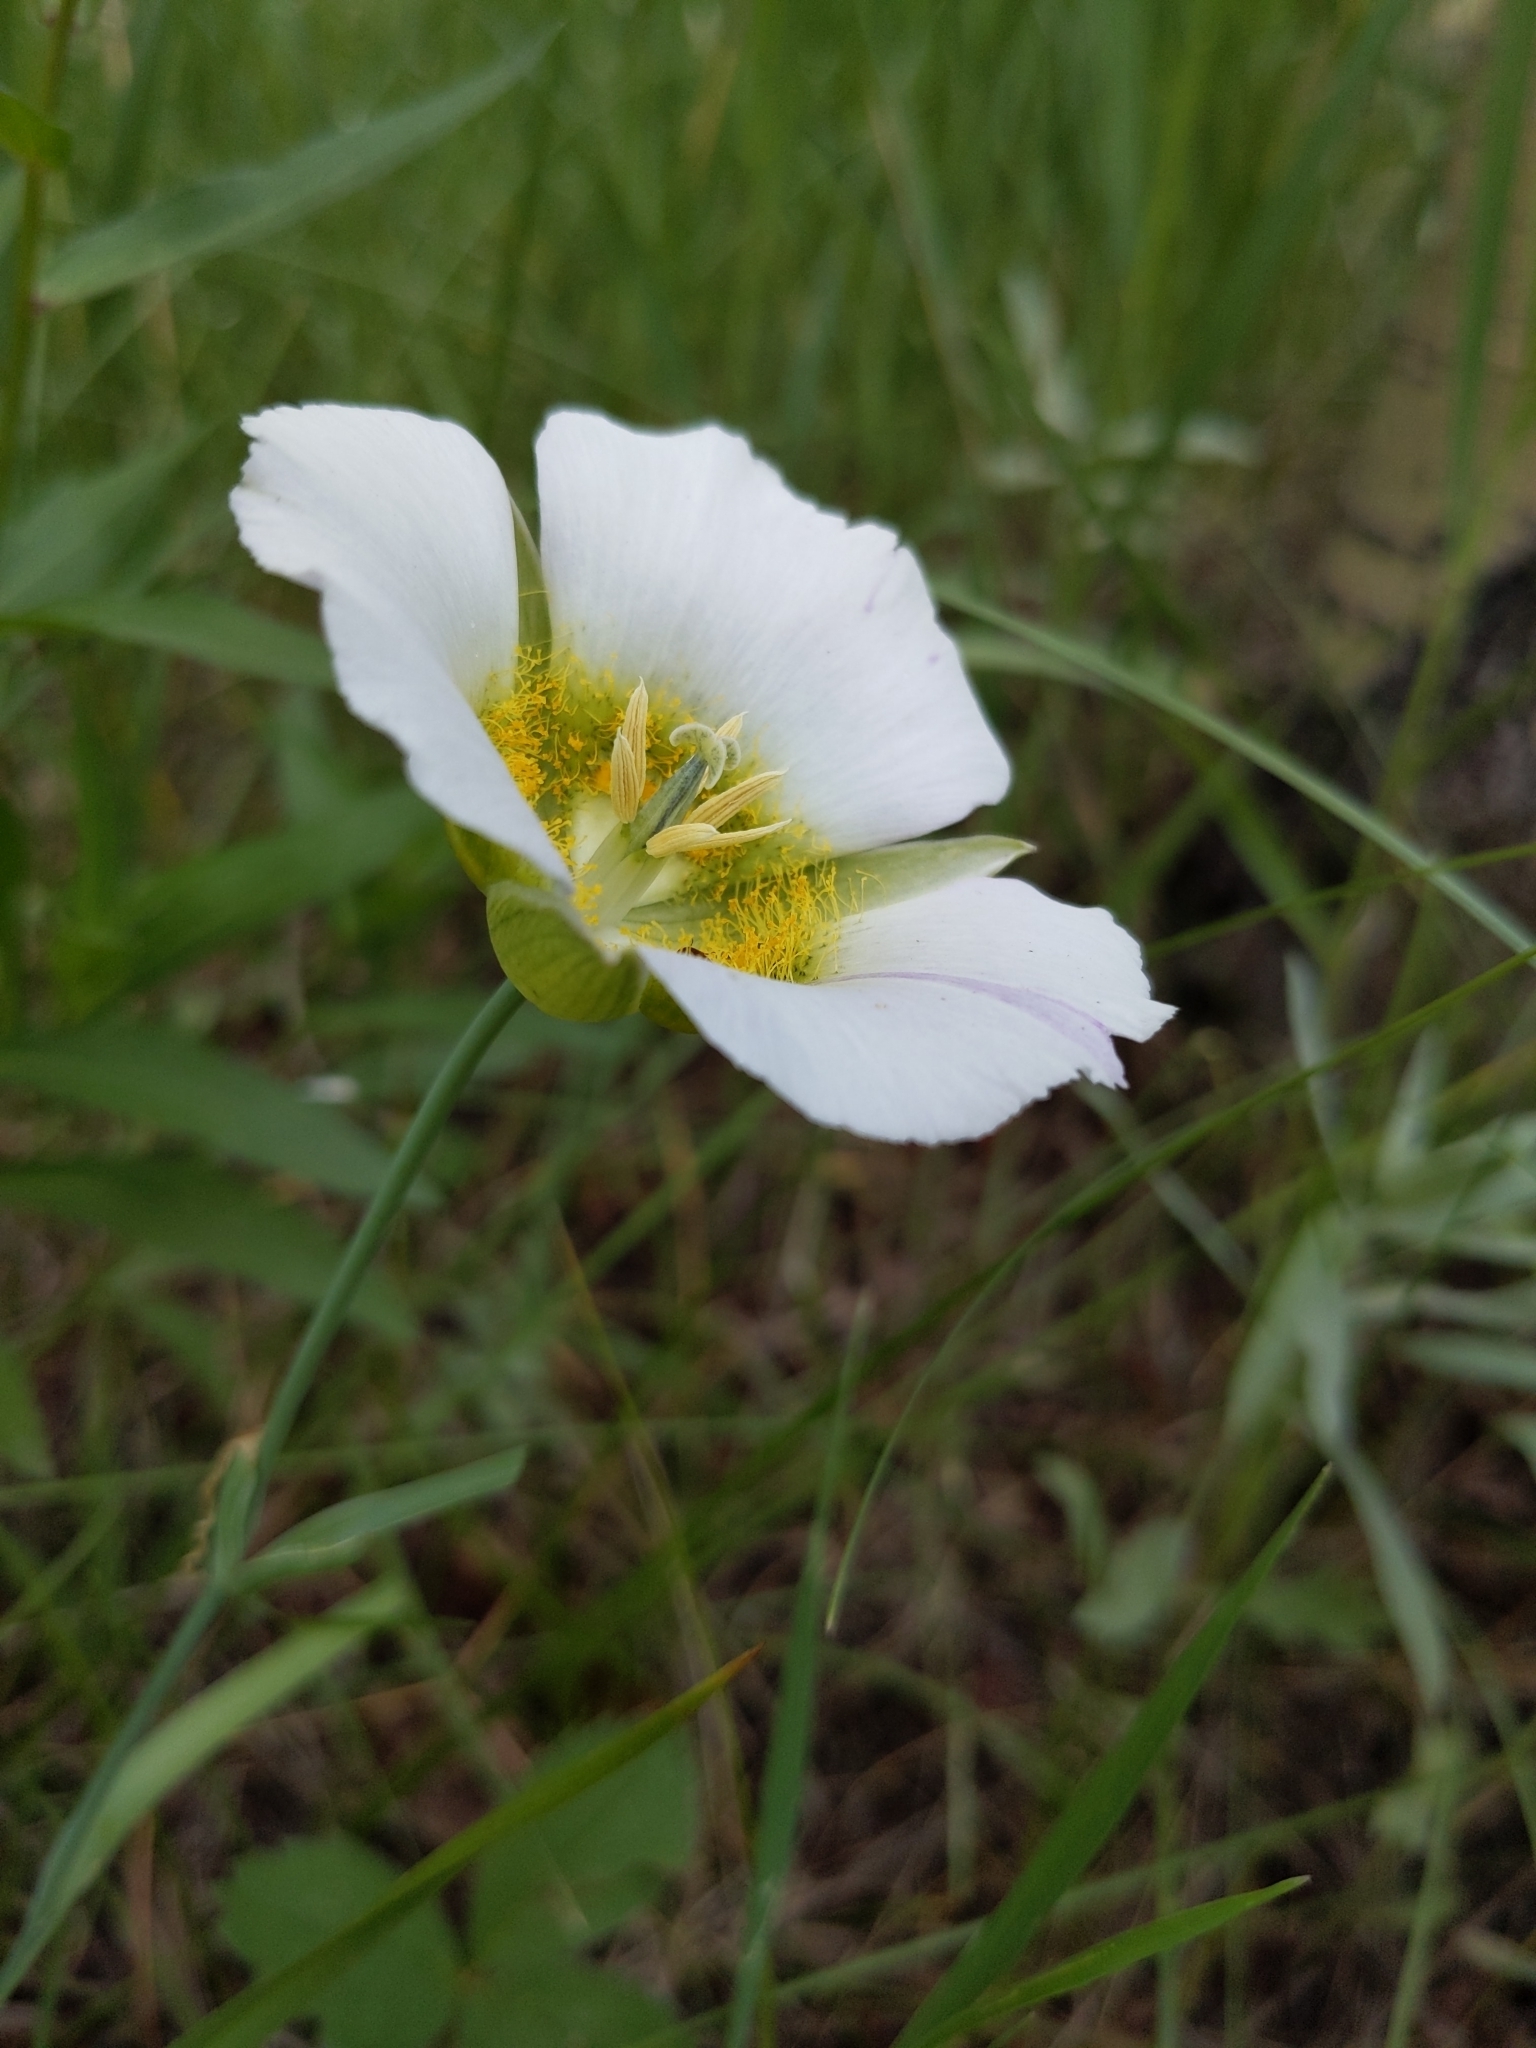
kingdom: Plantae
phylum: Tracheophyta
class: Liliopsida
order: Liliales
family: Liliaceae
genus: Calochortus
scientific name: Calochortus gunnisonii
